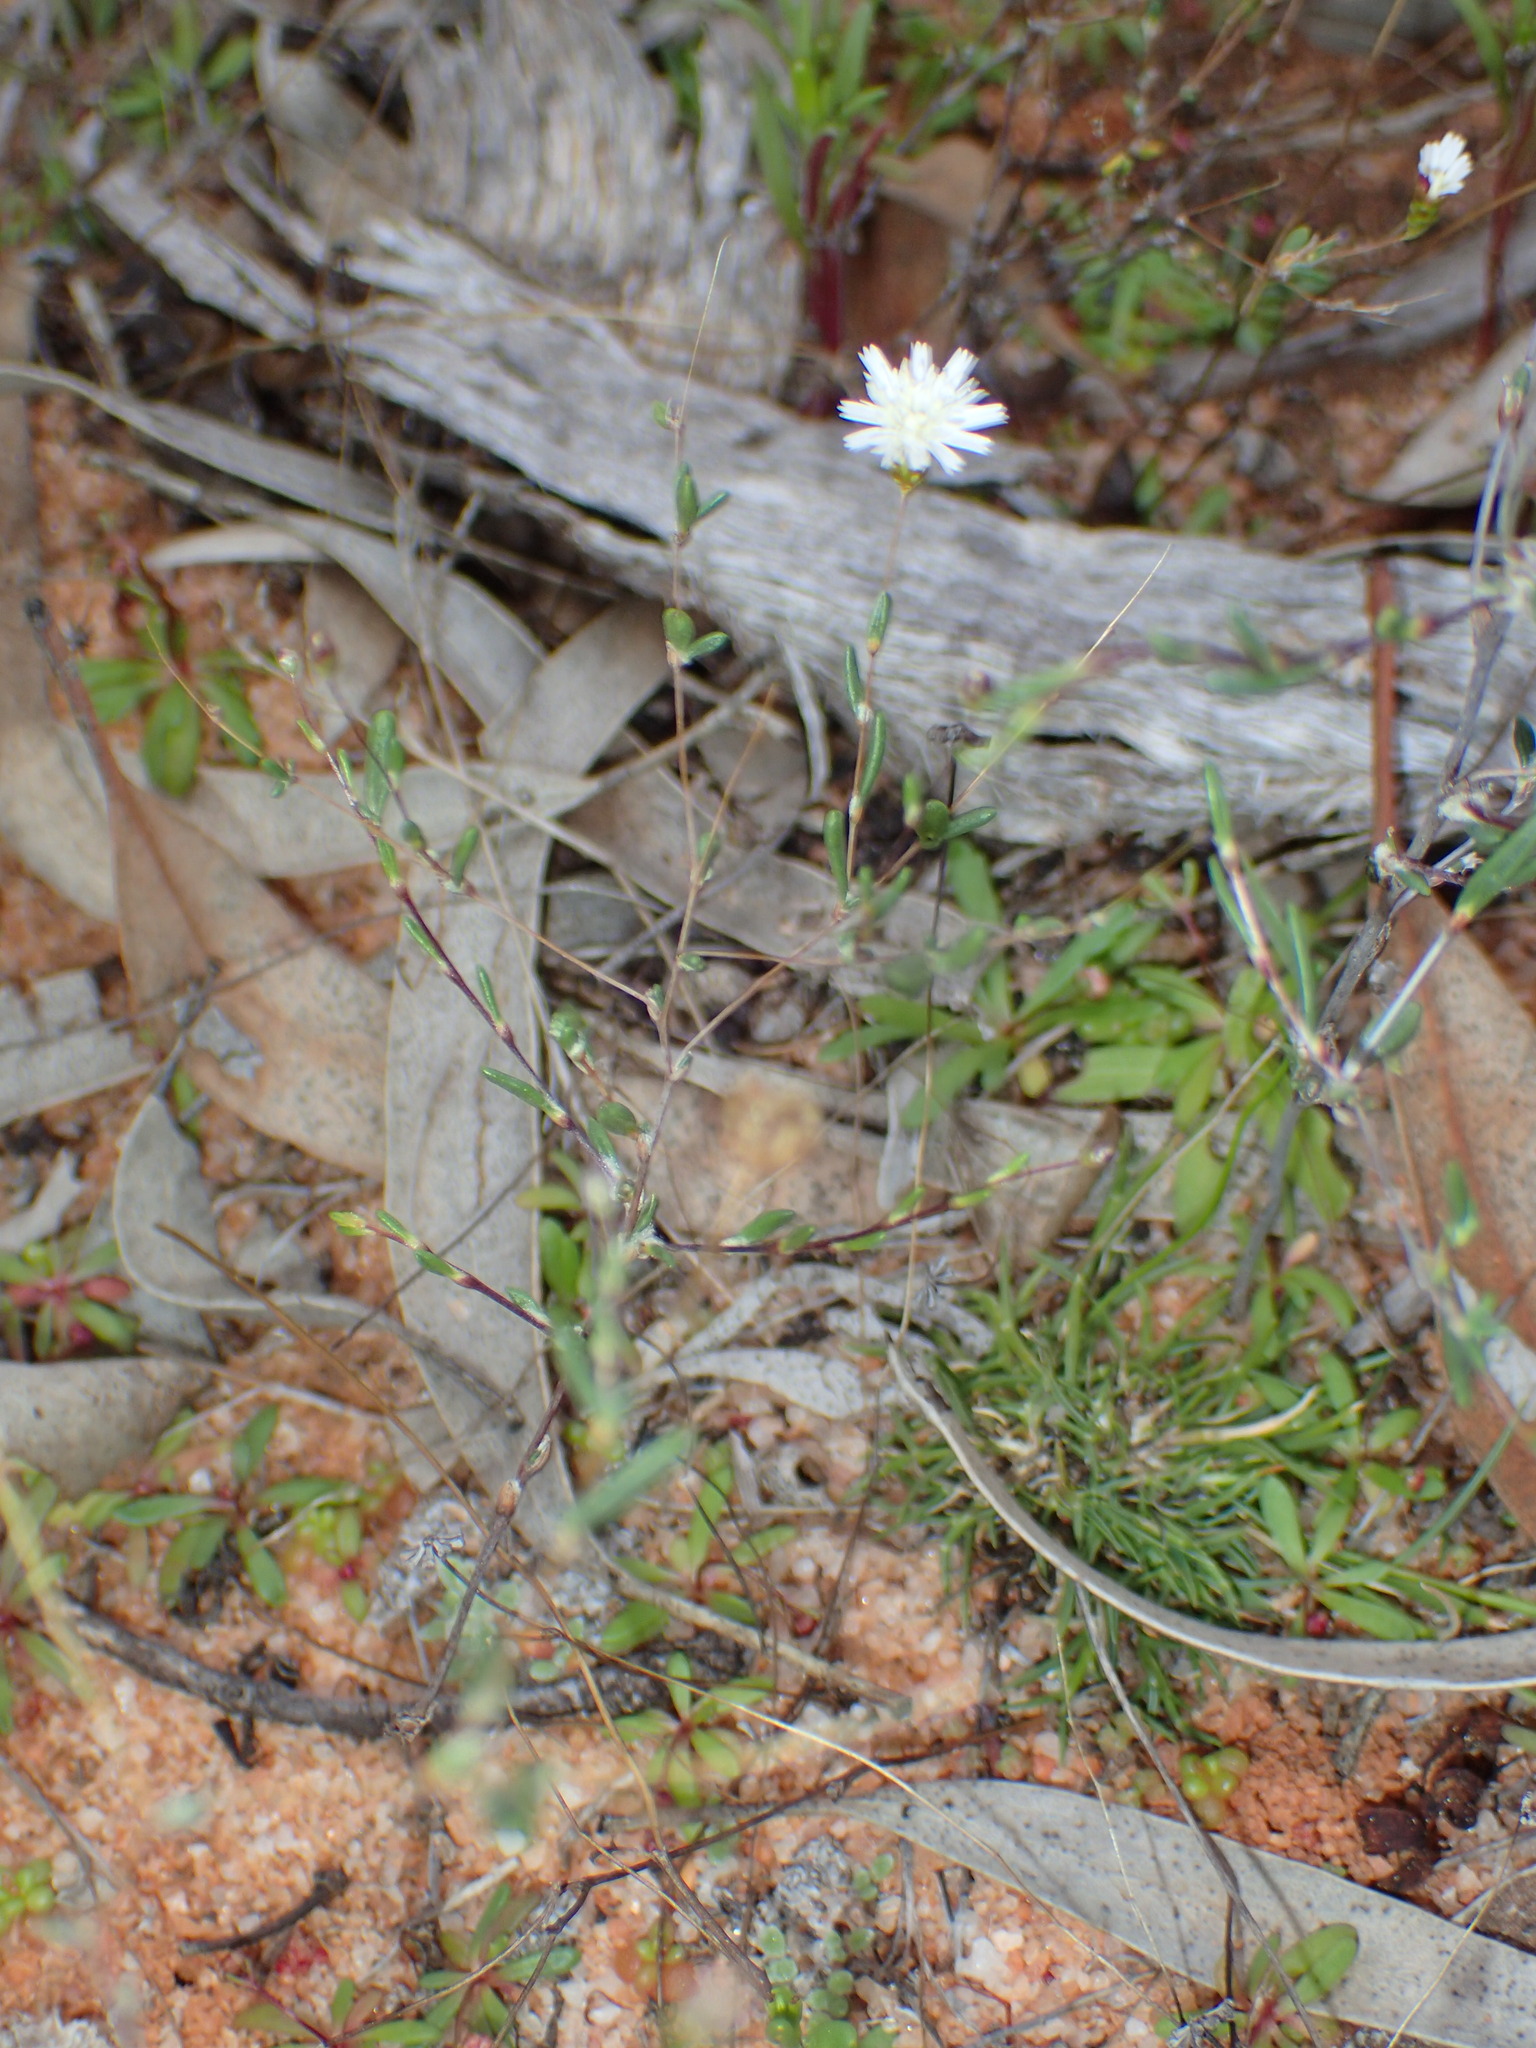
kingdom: Plantae
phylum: Tracheophyta
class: Magnoliopsida
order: Asterales
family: Asteraceae
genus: Siemssenia
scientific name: Siemssenia capillaris
